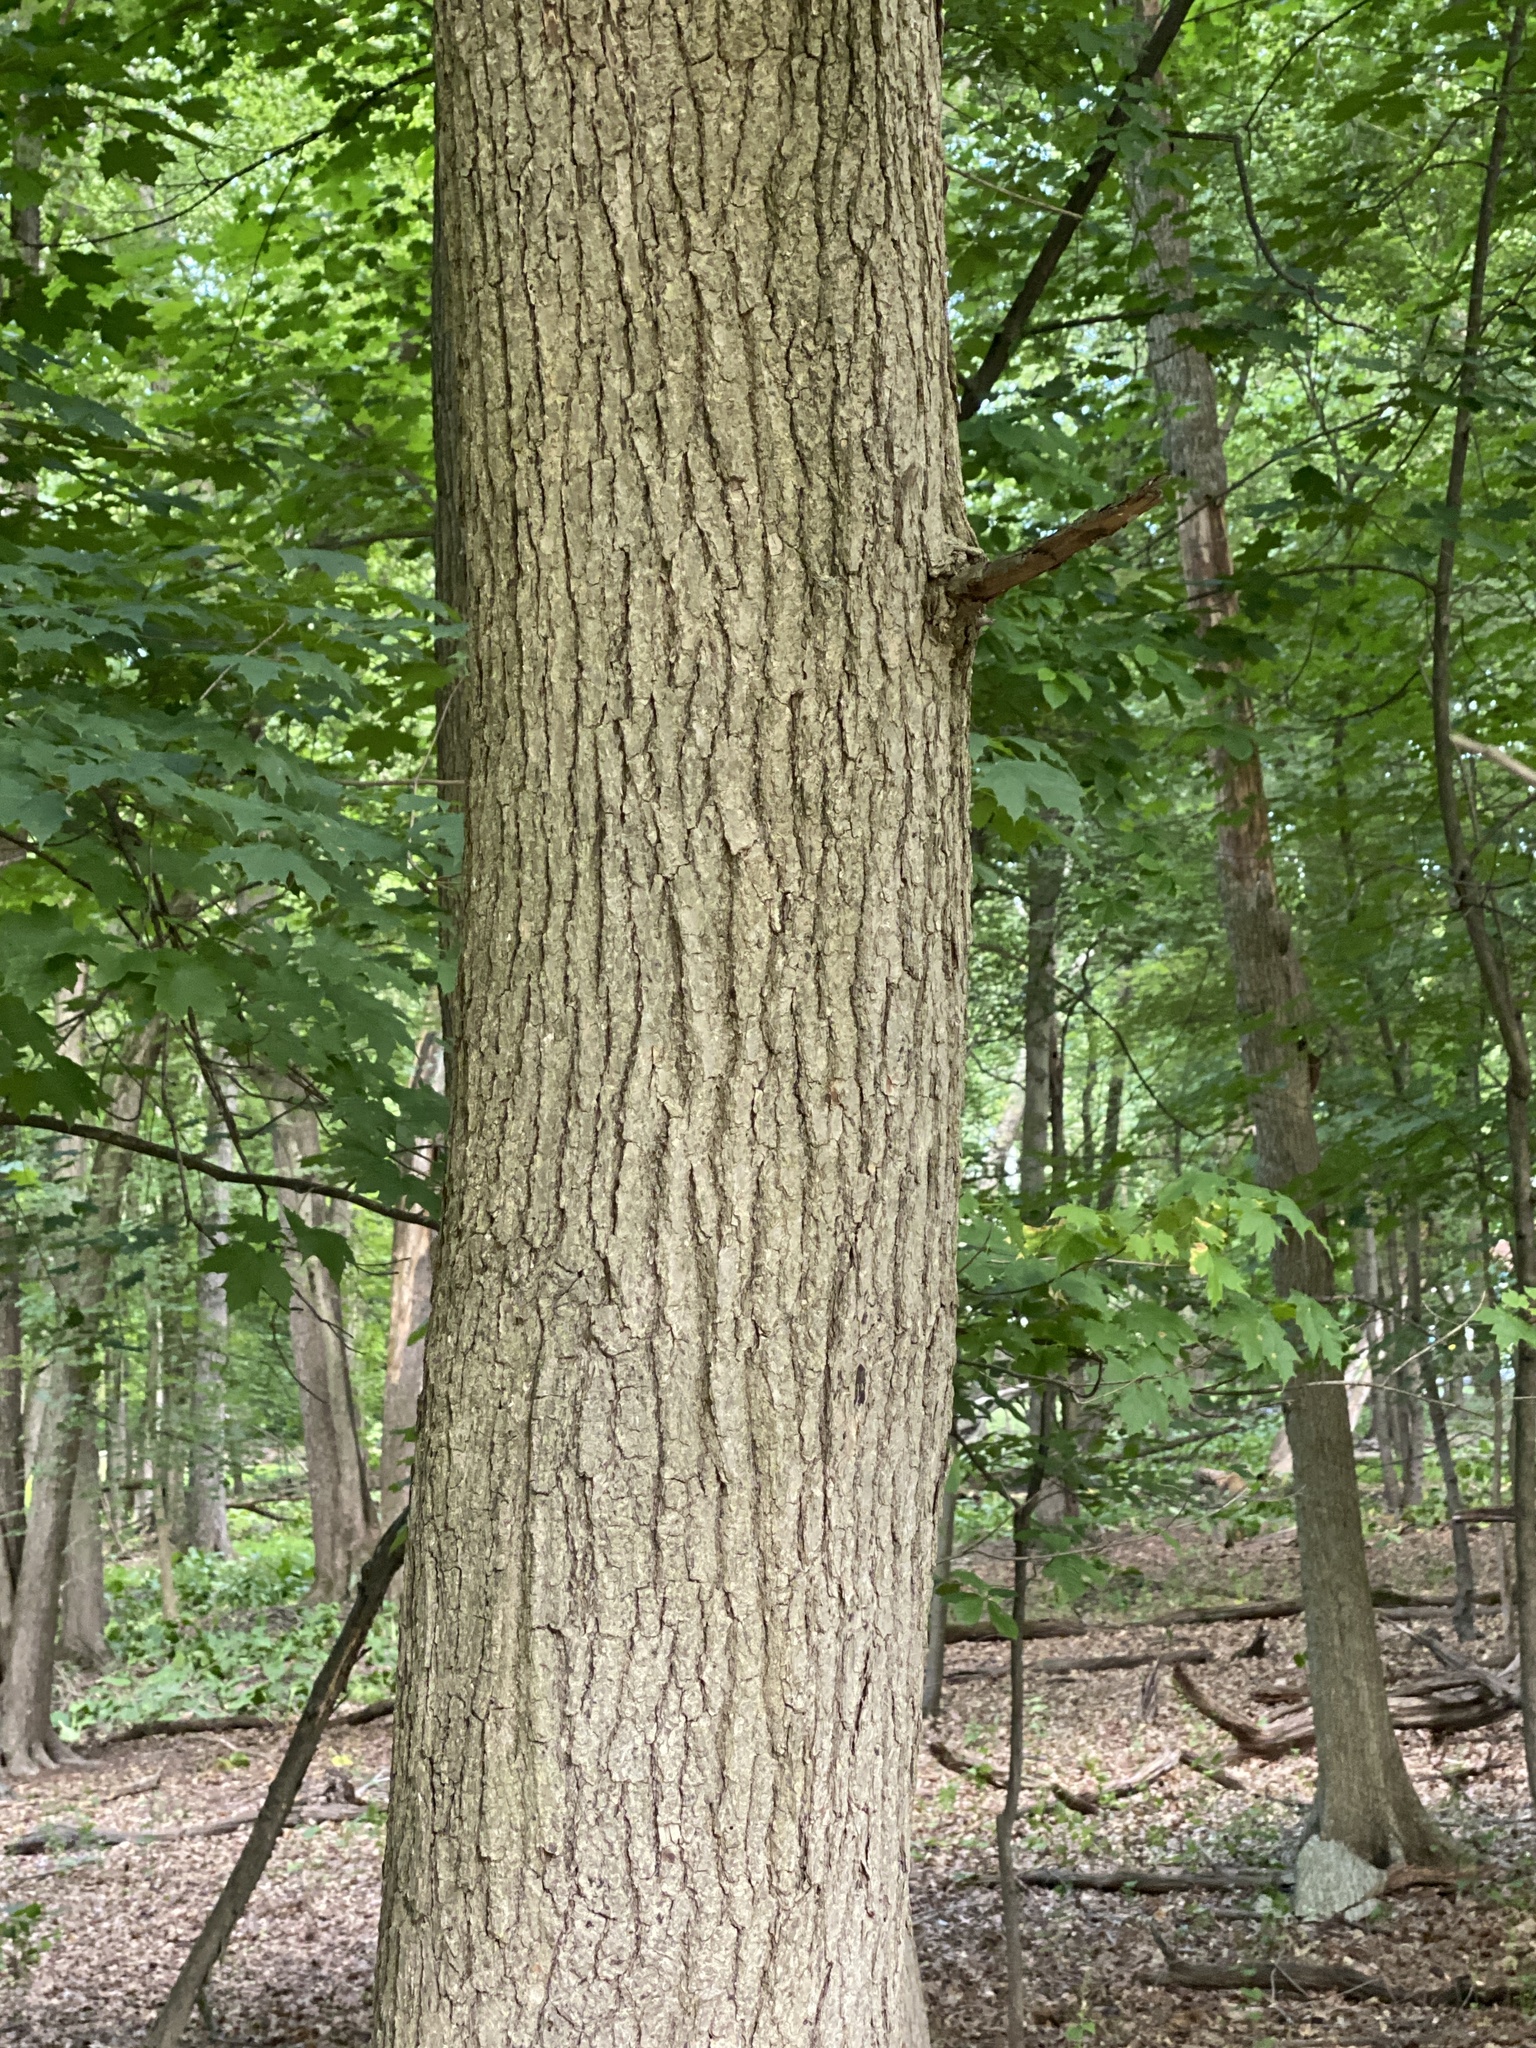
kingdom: Plantae
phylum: Tracheophyta
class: Magnoliopsida
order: Cornales
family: Nyssaceae
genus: Nyssa
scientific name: Nyssa sylvatica
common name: Black tupelo
